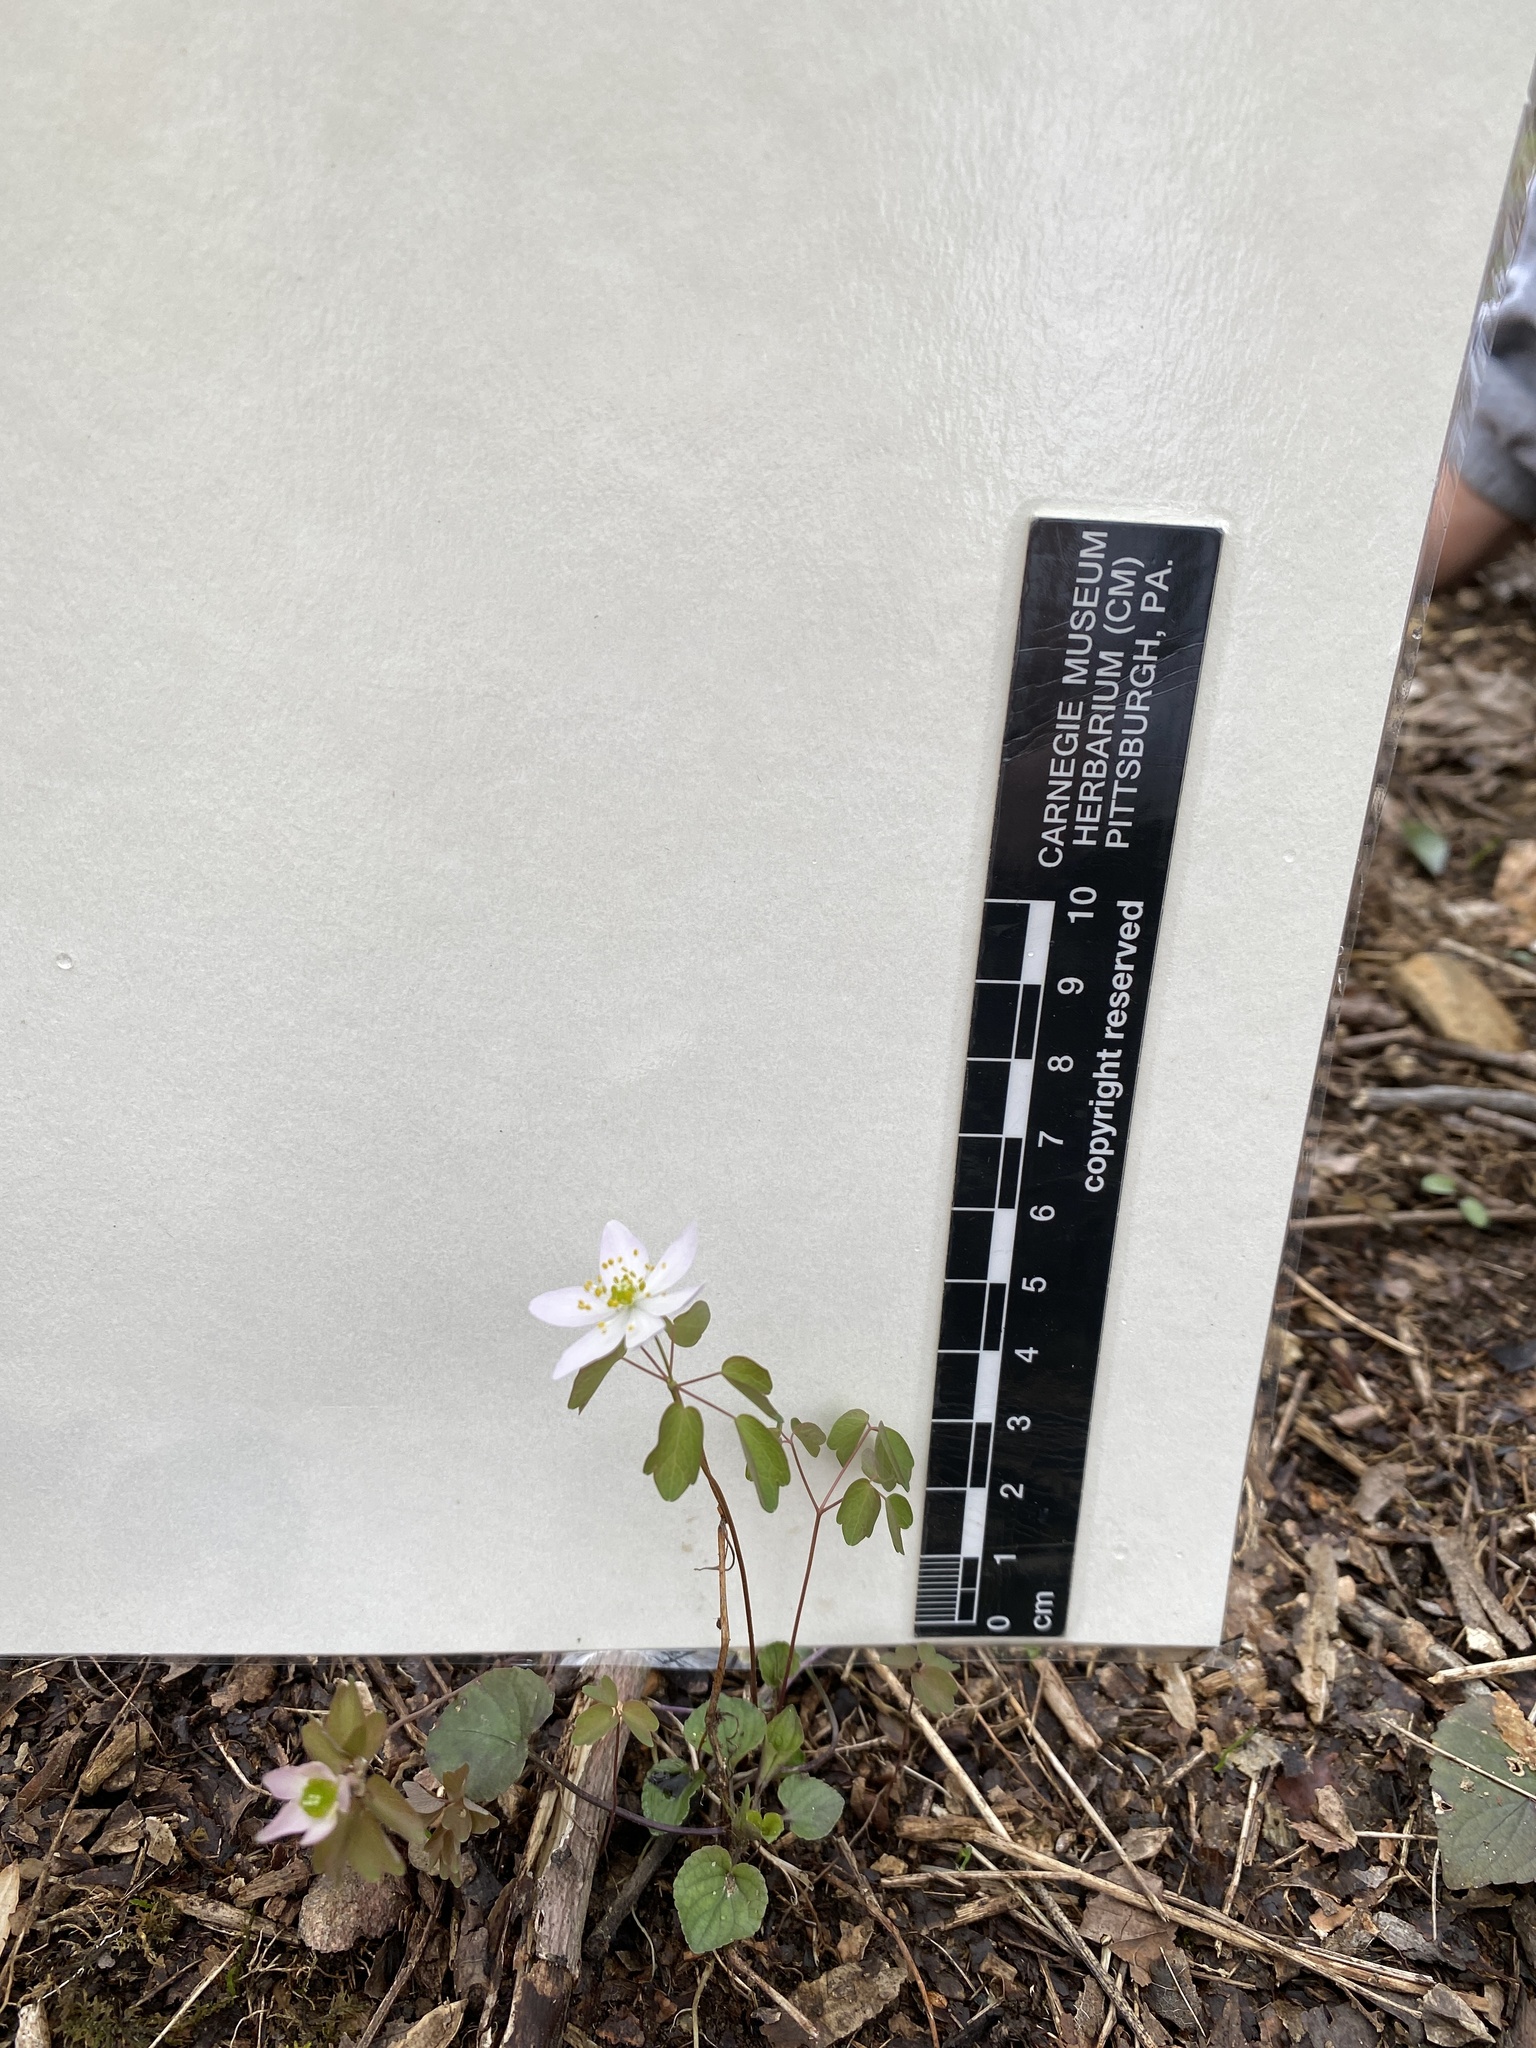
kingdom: Plantae
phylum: Tracheophyta
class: Magnoliopsida
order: Ranunculales
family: Ranunculaceae
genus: Thalictrum
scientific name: Thalictrum thalictroides
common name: Rue-anemone
